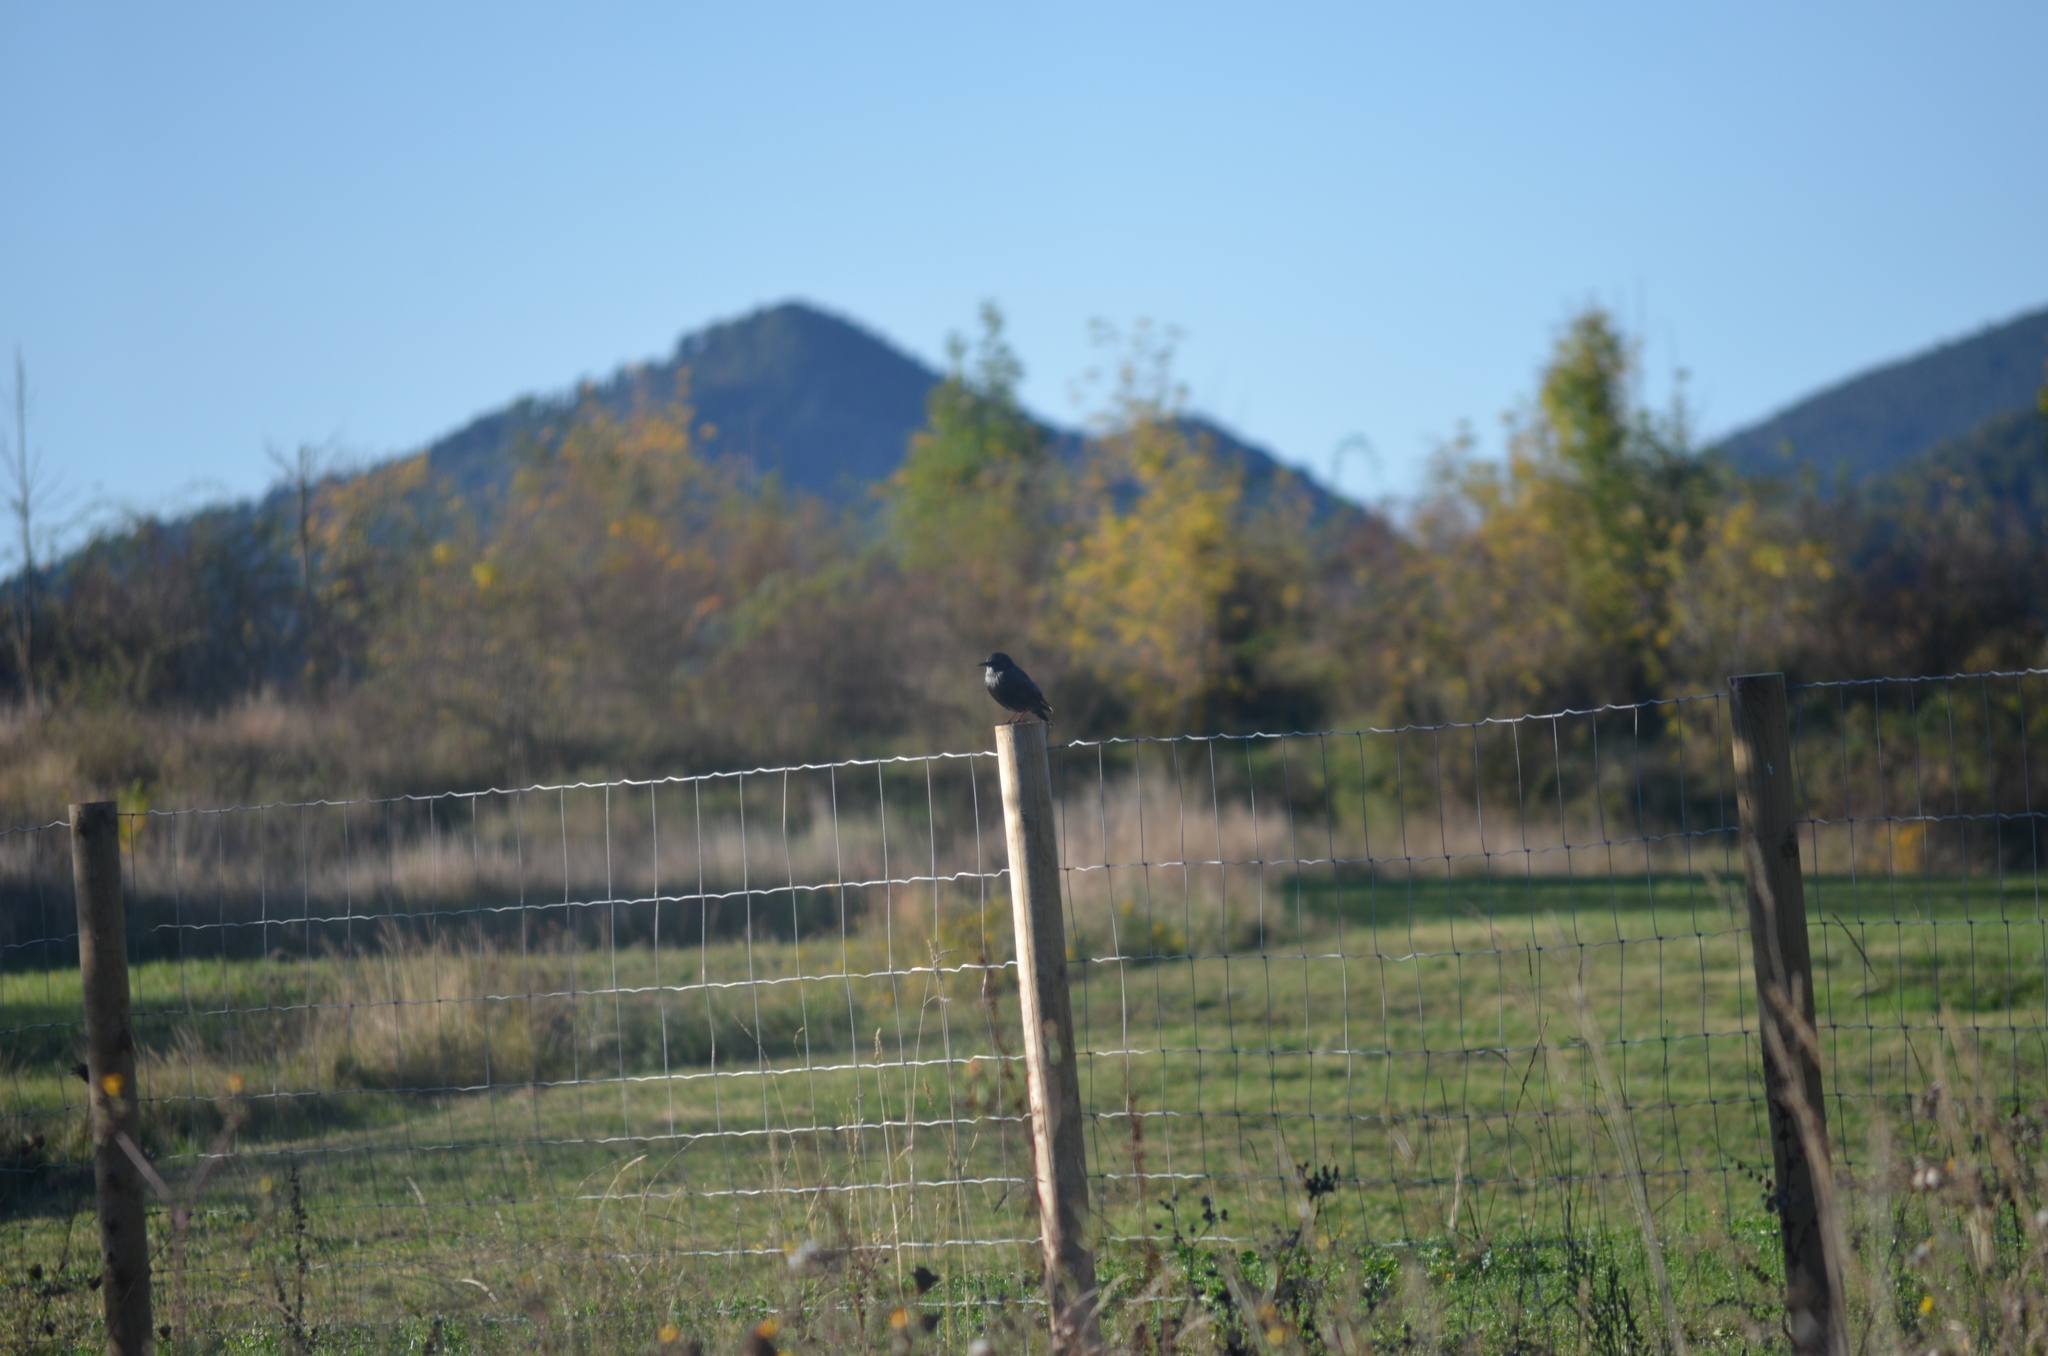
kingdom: Animalia
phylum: Chordata
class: Aves
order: Passeriformes
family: Sturnidae
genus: Sturnus
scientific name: Sturnus unicolor
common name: Spotless starling
